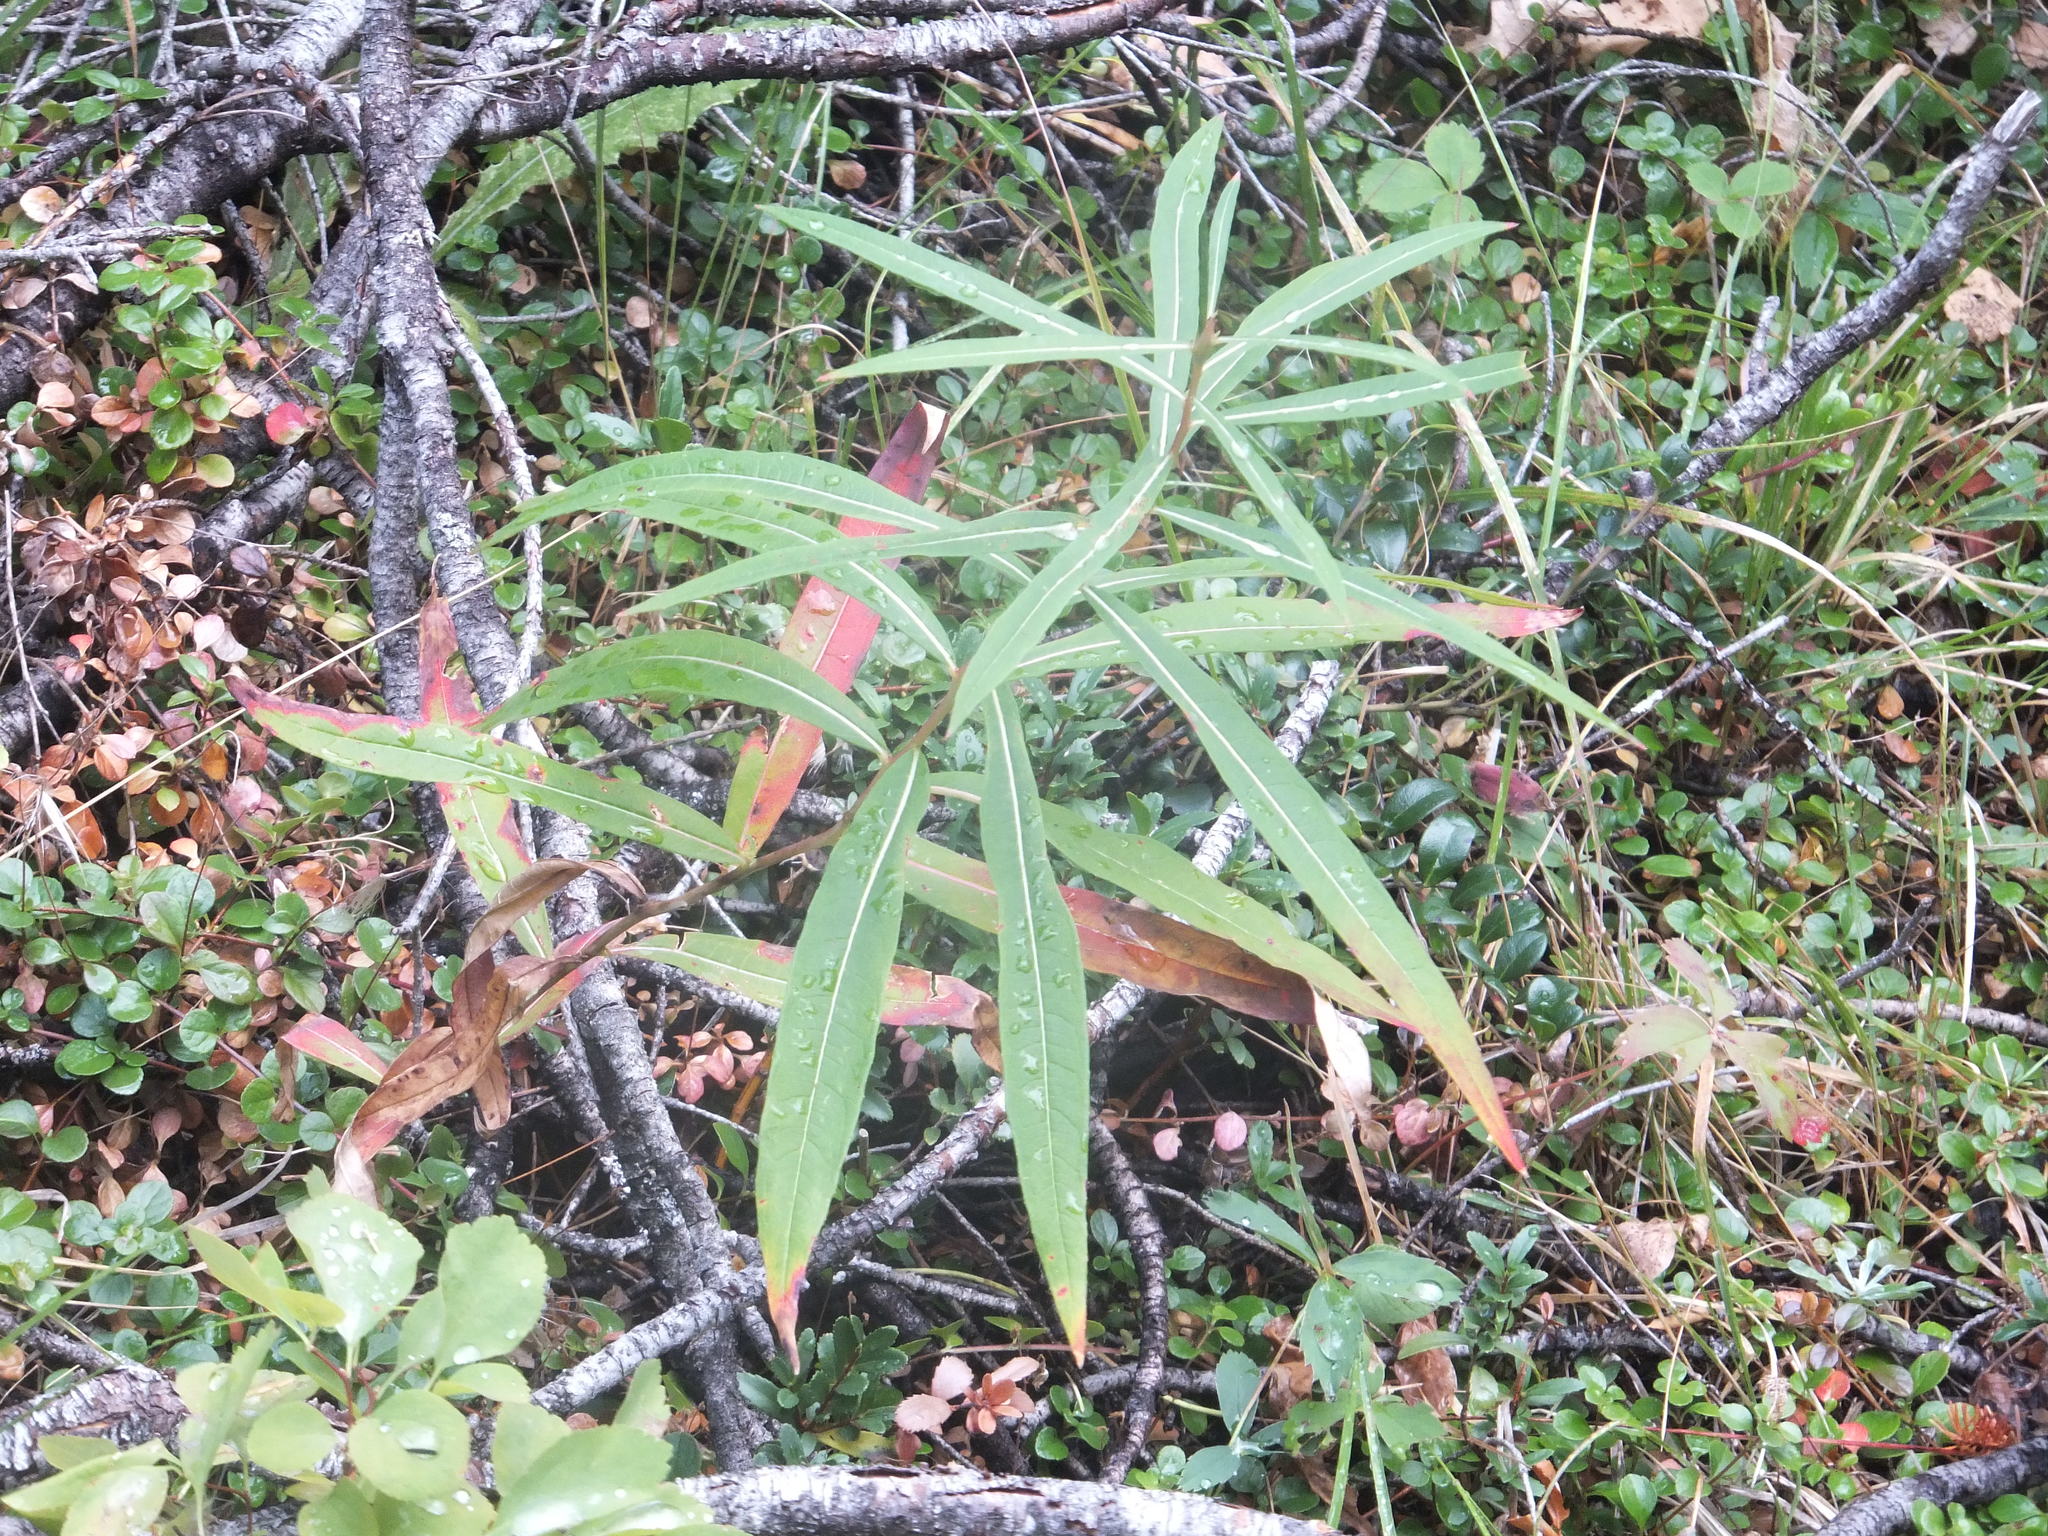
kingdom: Plantae
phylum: Tracheophyta
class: Magnoliopsida
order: Myrtales
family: Onagraceae
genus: Chamaenerion
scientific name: Chamaenerion angustifolium
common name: Fireweed
